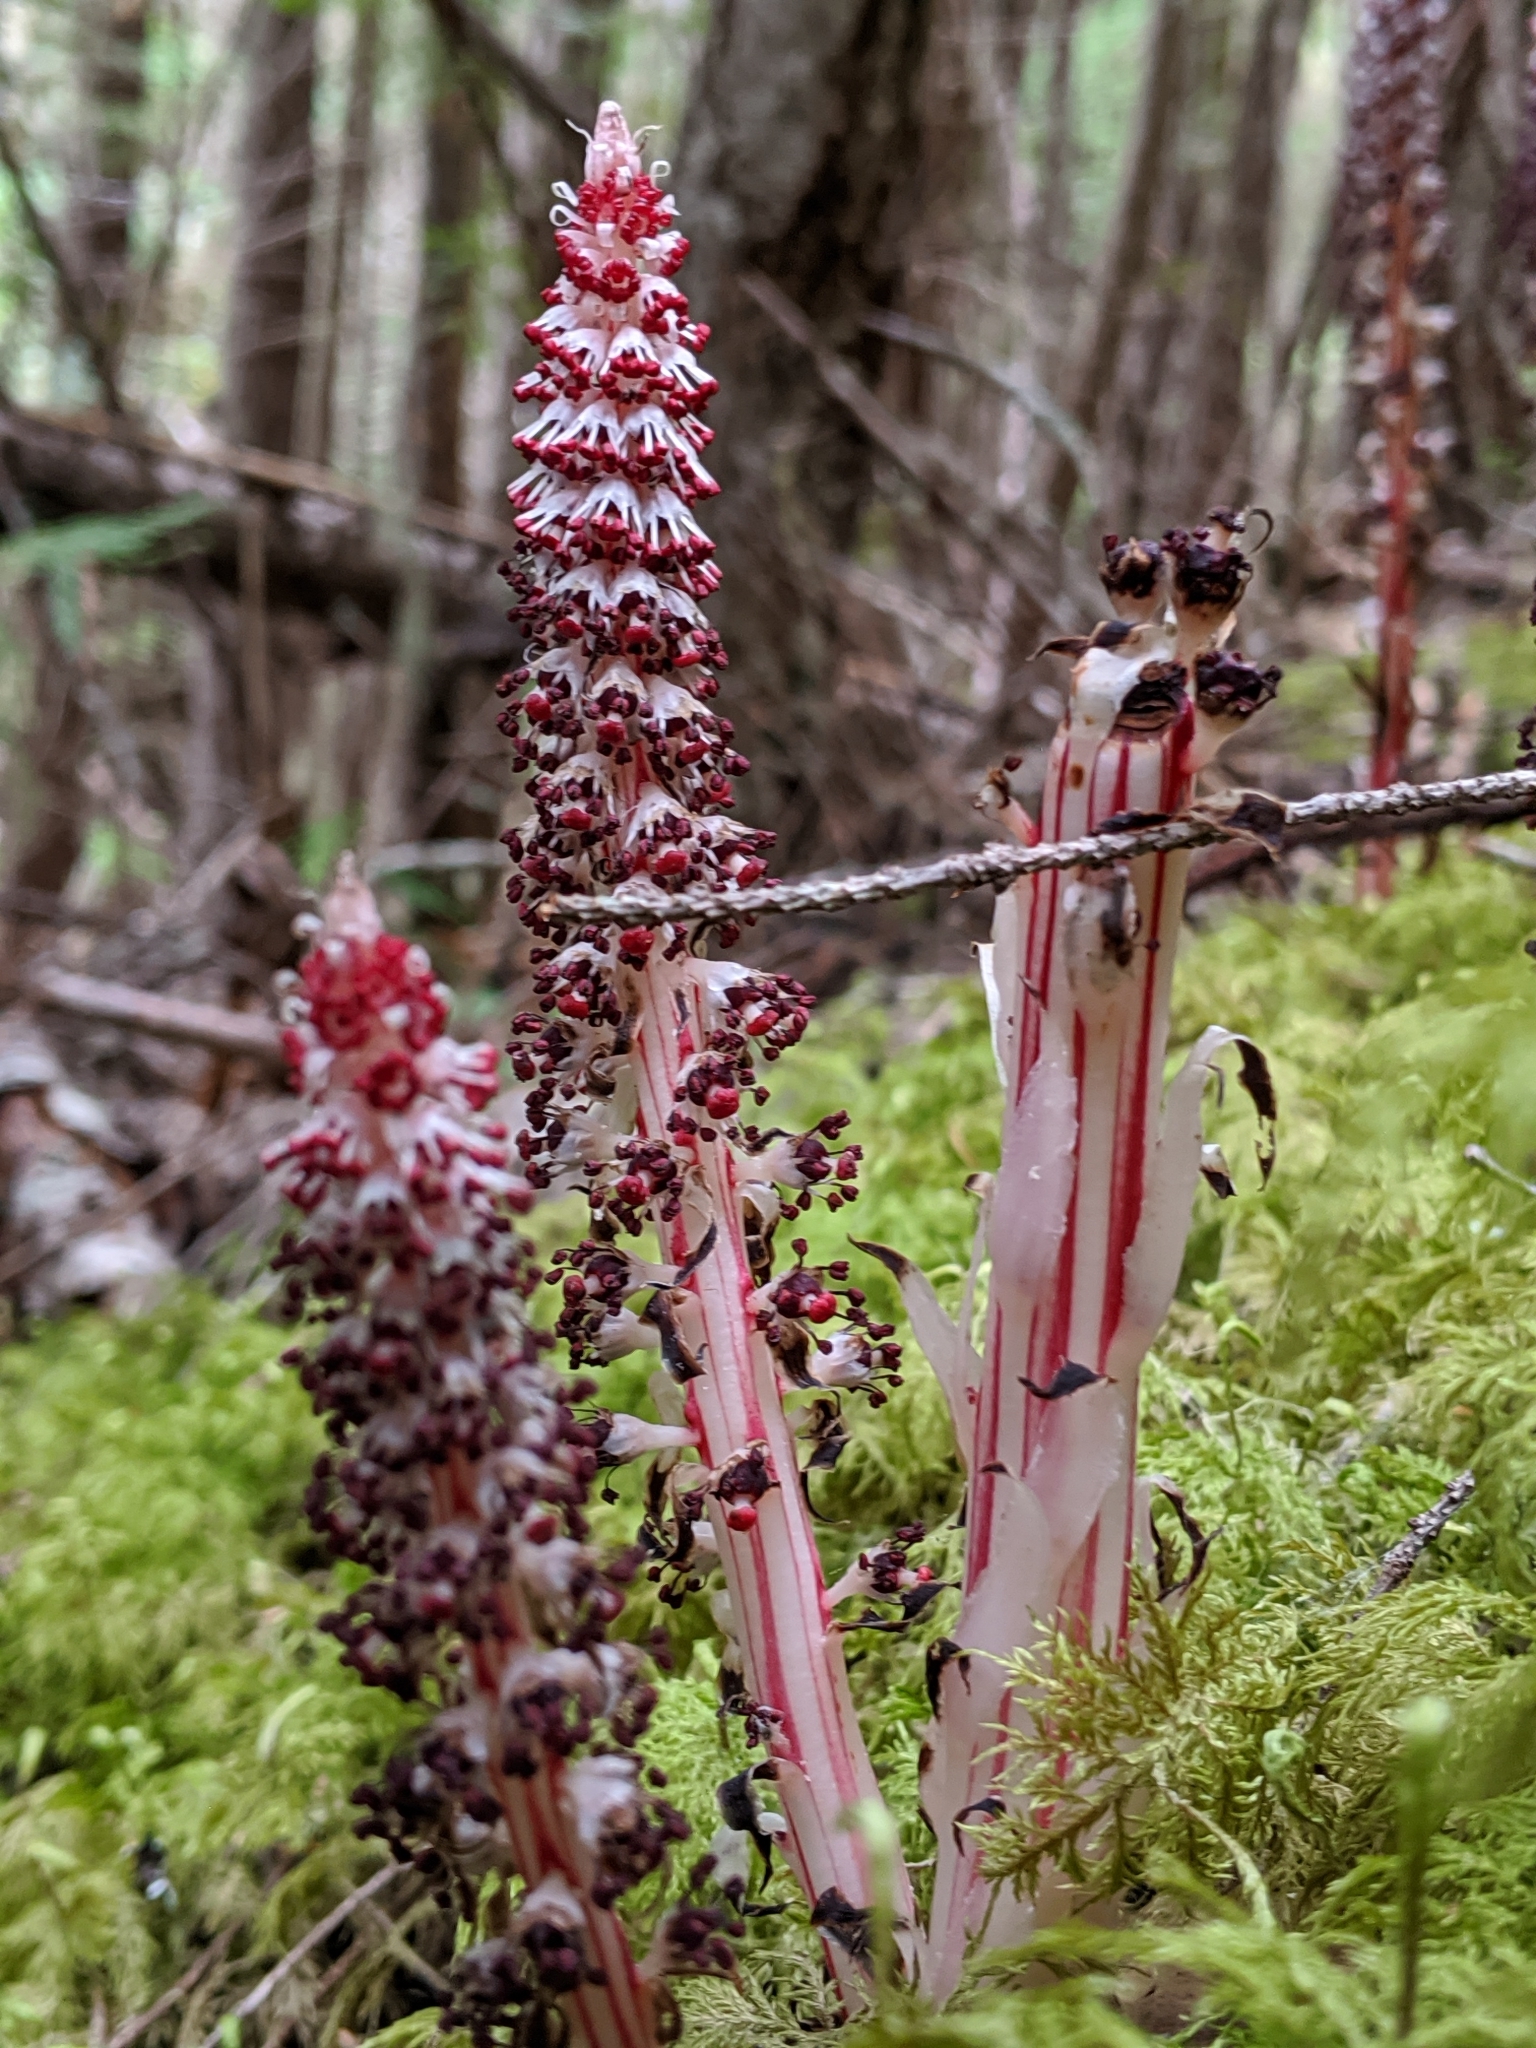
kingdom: Plantae
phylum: Tracheophyta
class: Magnoliopsida
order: Ericales
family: Ericaceae
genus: Allotropa
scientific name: Allotropa virgata
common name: Candy-striped allotropa
